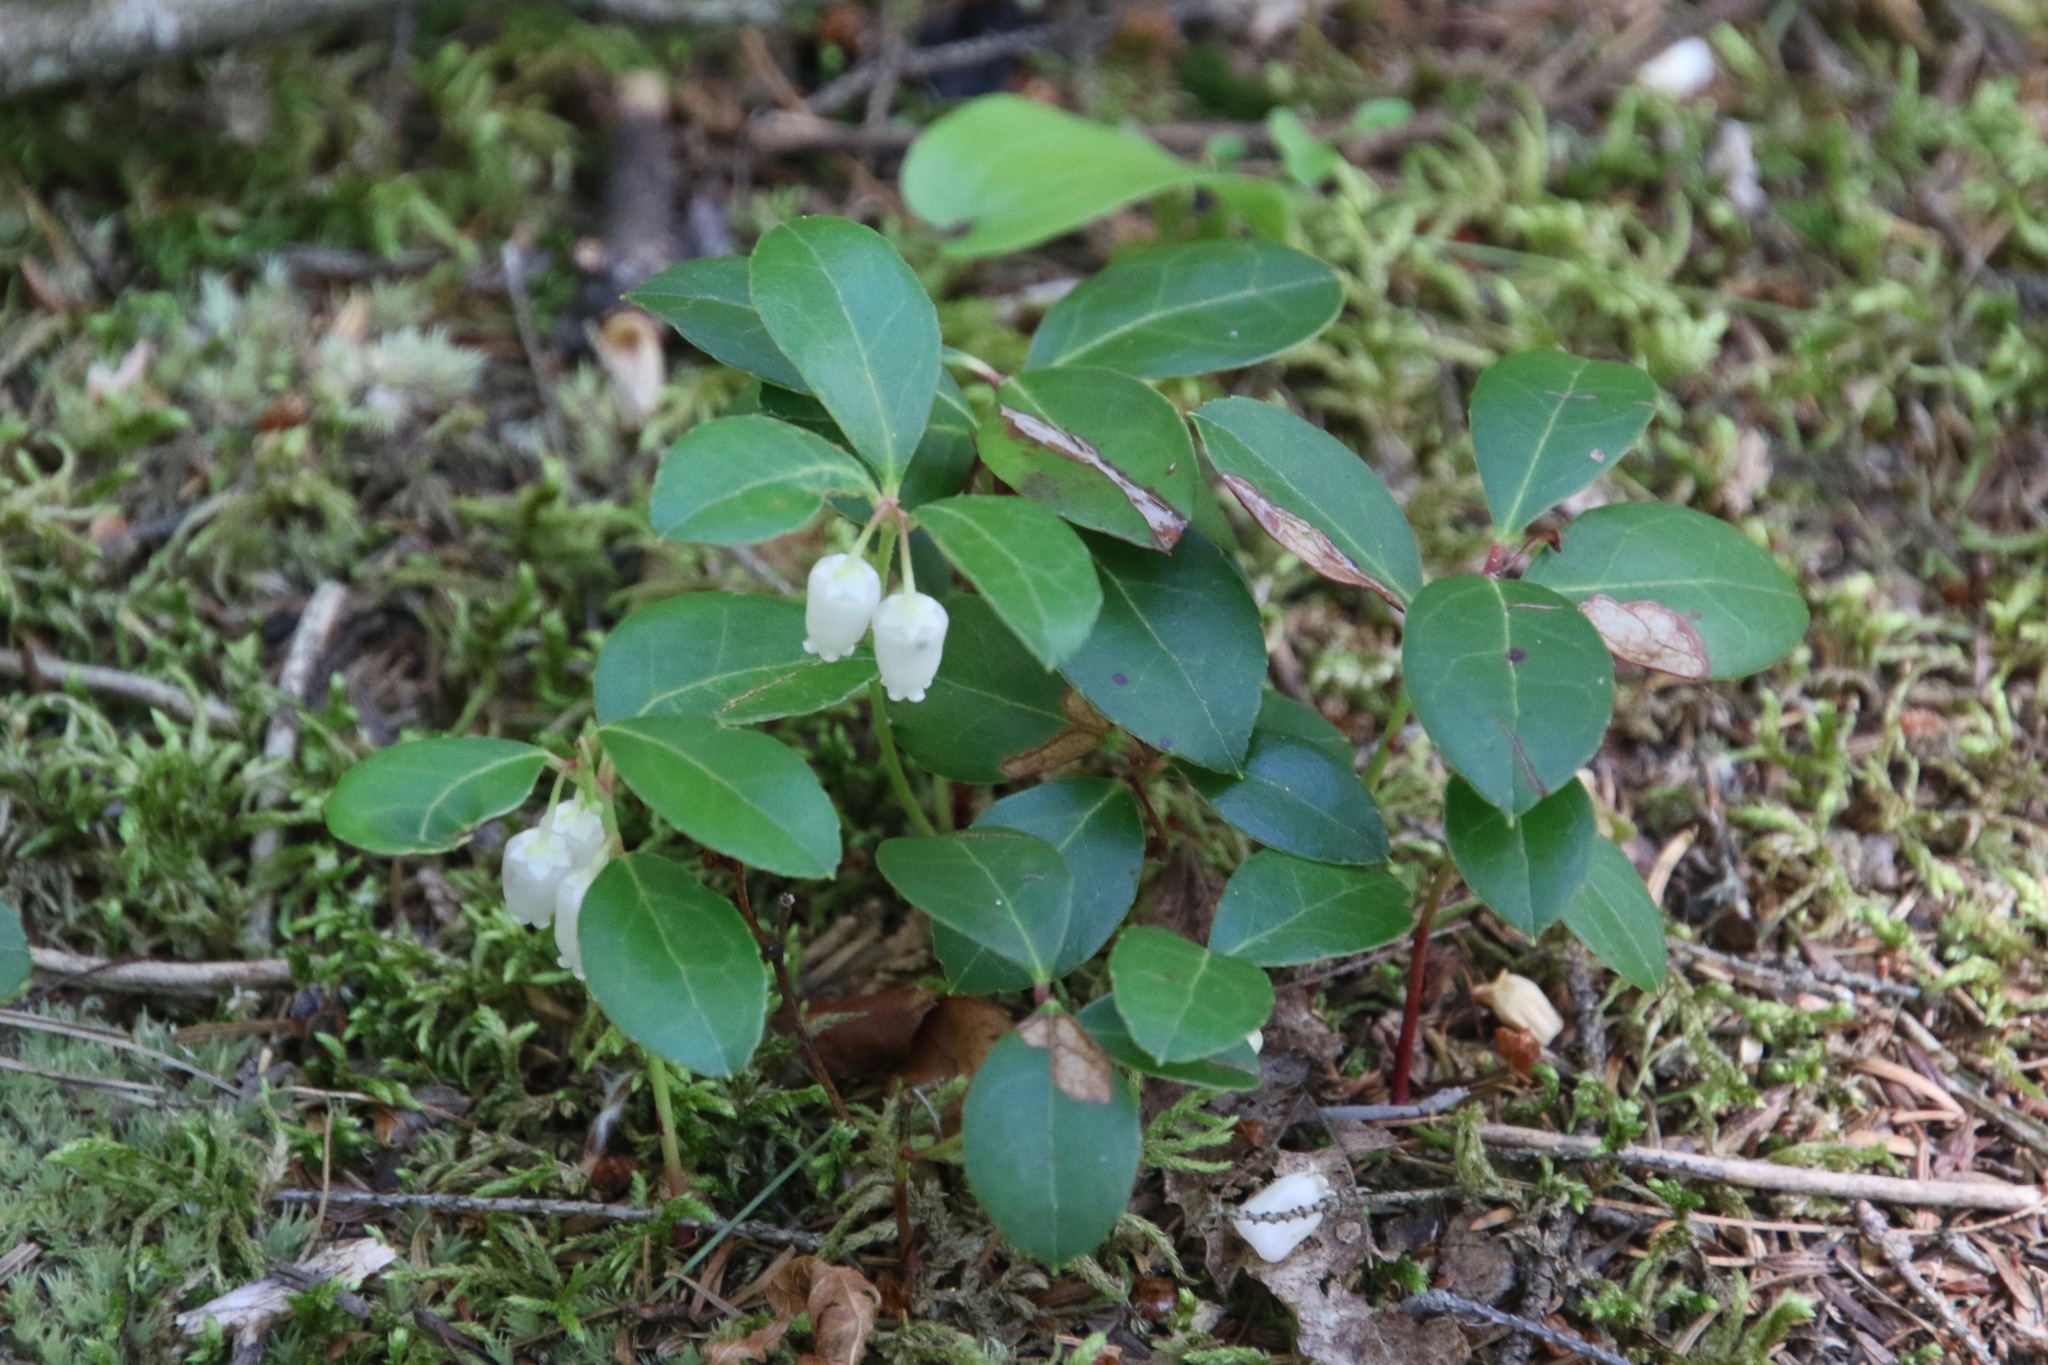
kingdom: Plantae
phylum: Tracheophyta
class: Magnoliopsida
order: Ericales
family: Ericaceae
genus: Gaultheria
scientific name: Gaultheria procumbens
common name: Checkerberry
